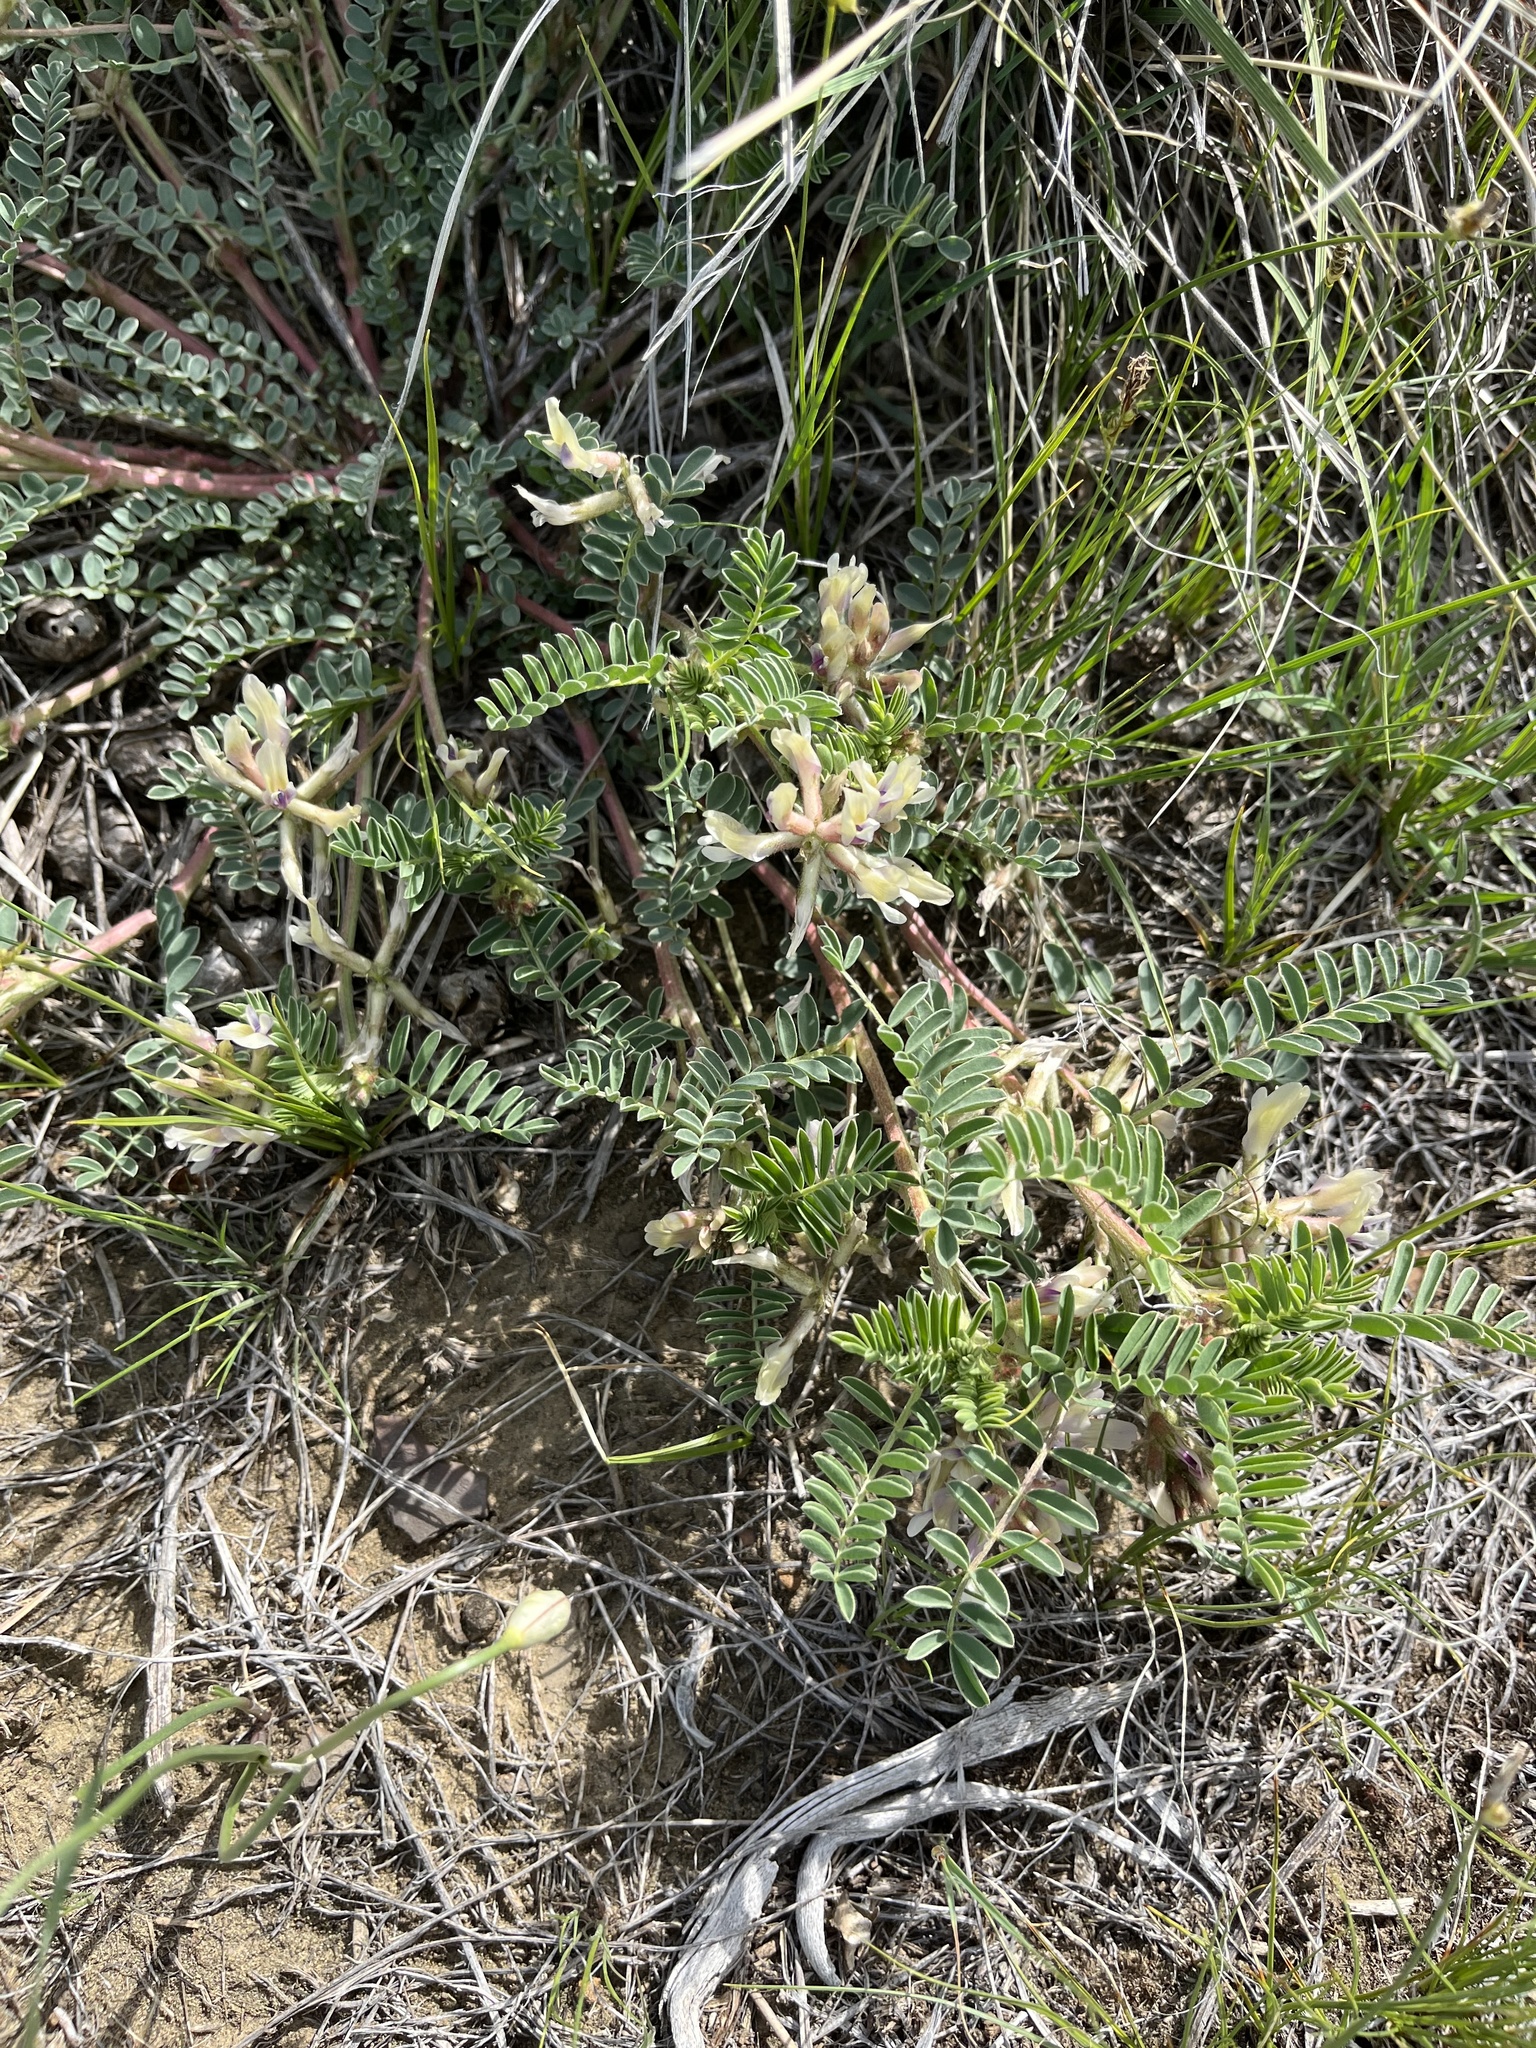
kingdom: Plantae
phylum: Tracheophyta
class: Magnoliopsida
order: Fabales
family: Fabaceae
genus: Astragalus
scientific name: Astragalus crassicarpus
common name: Ground-plum milk-vetch
